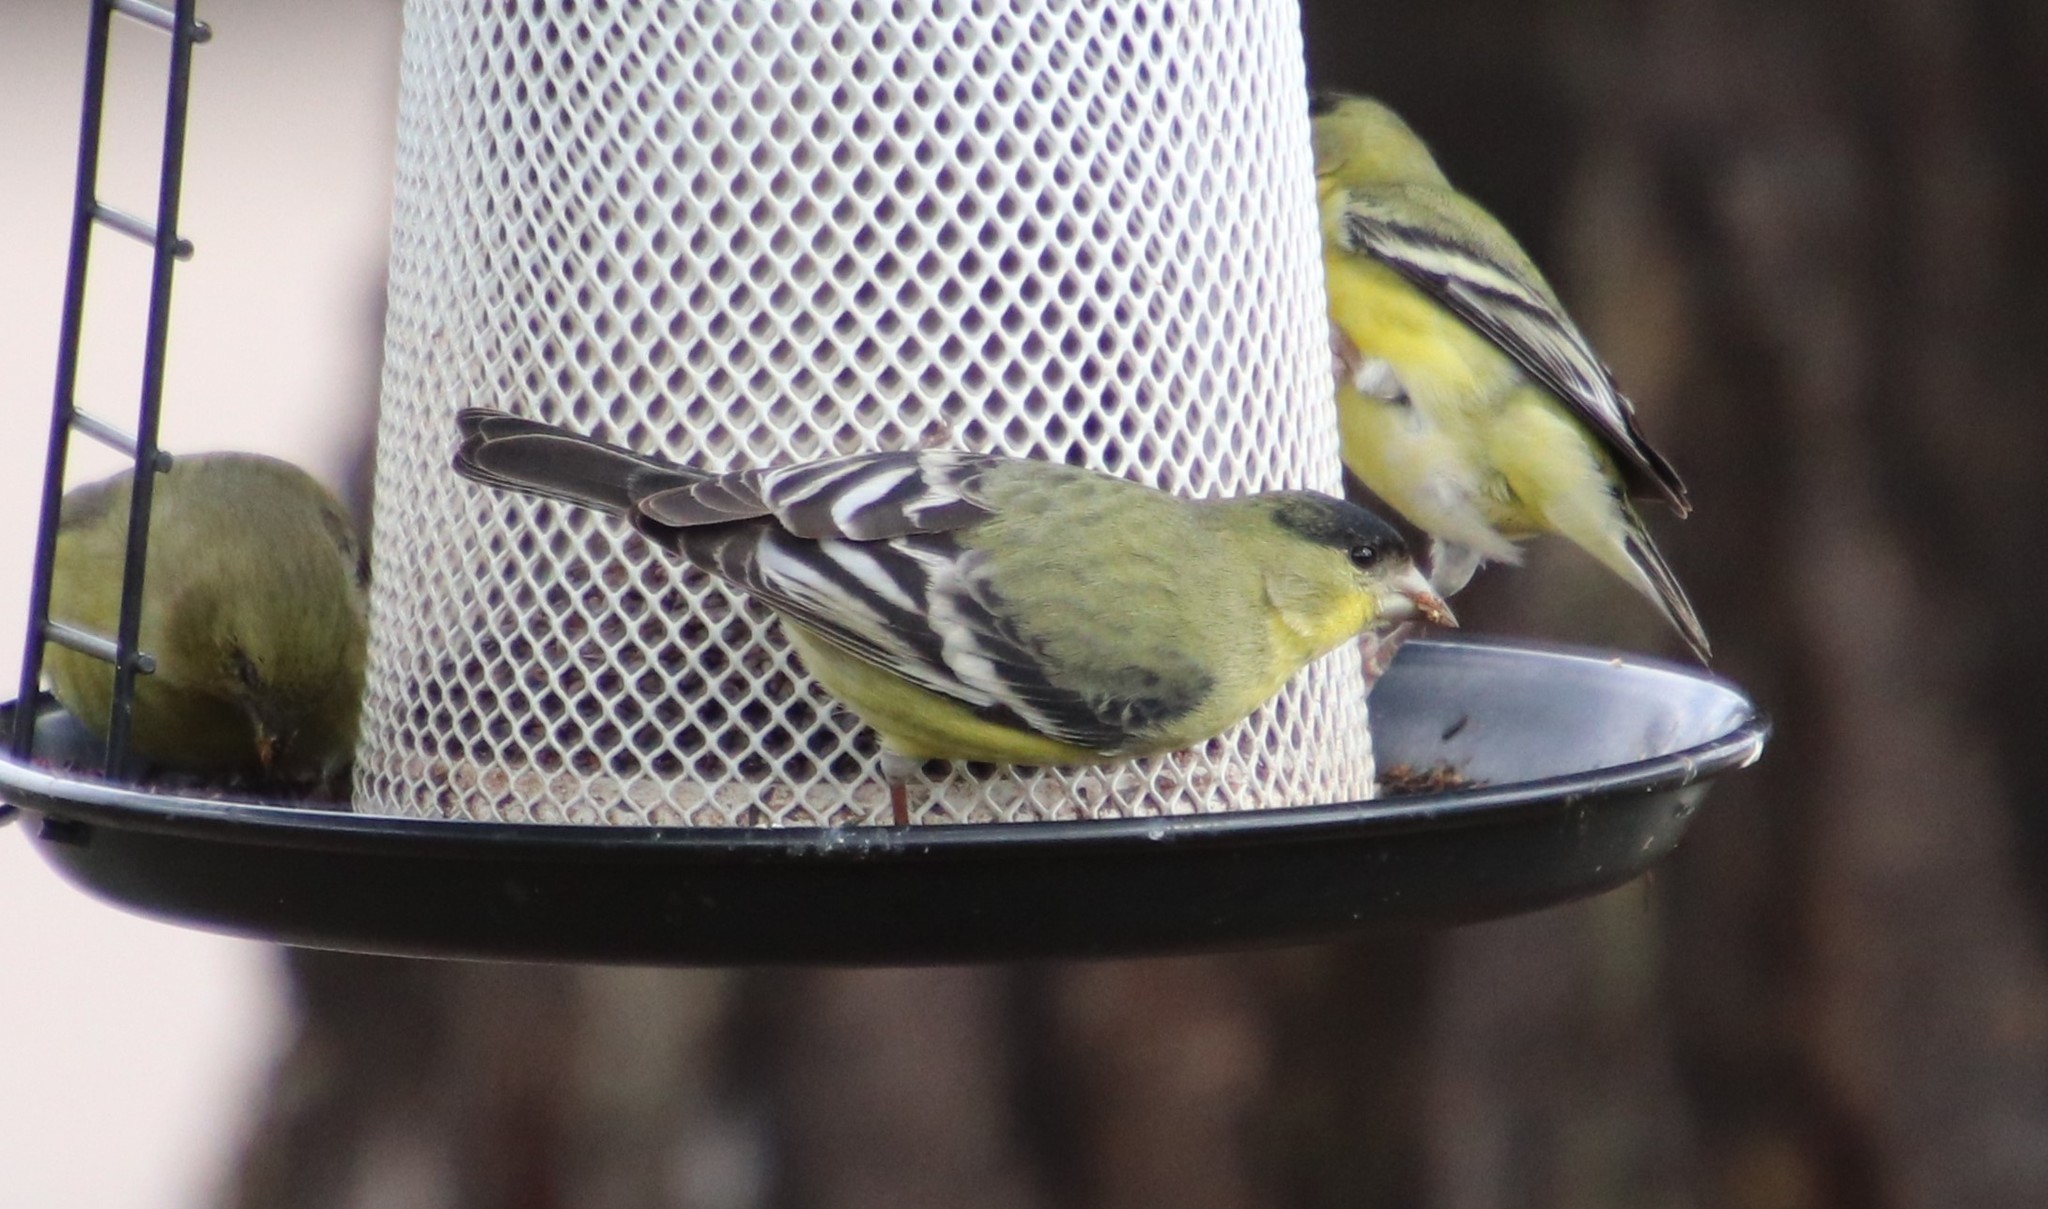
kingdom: Animalia
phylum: Chordata
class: Aves
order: Passeriformes
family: Fringillidae
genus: Spinus
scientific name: Spinus psaltria
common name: Lesser goldfinch
